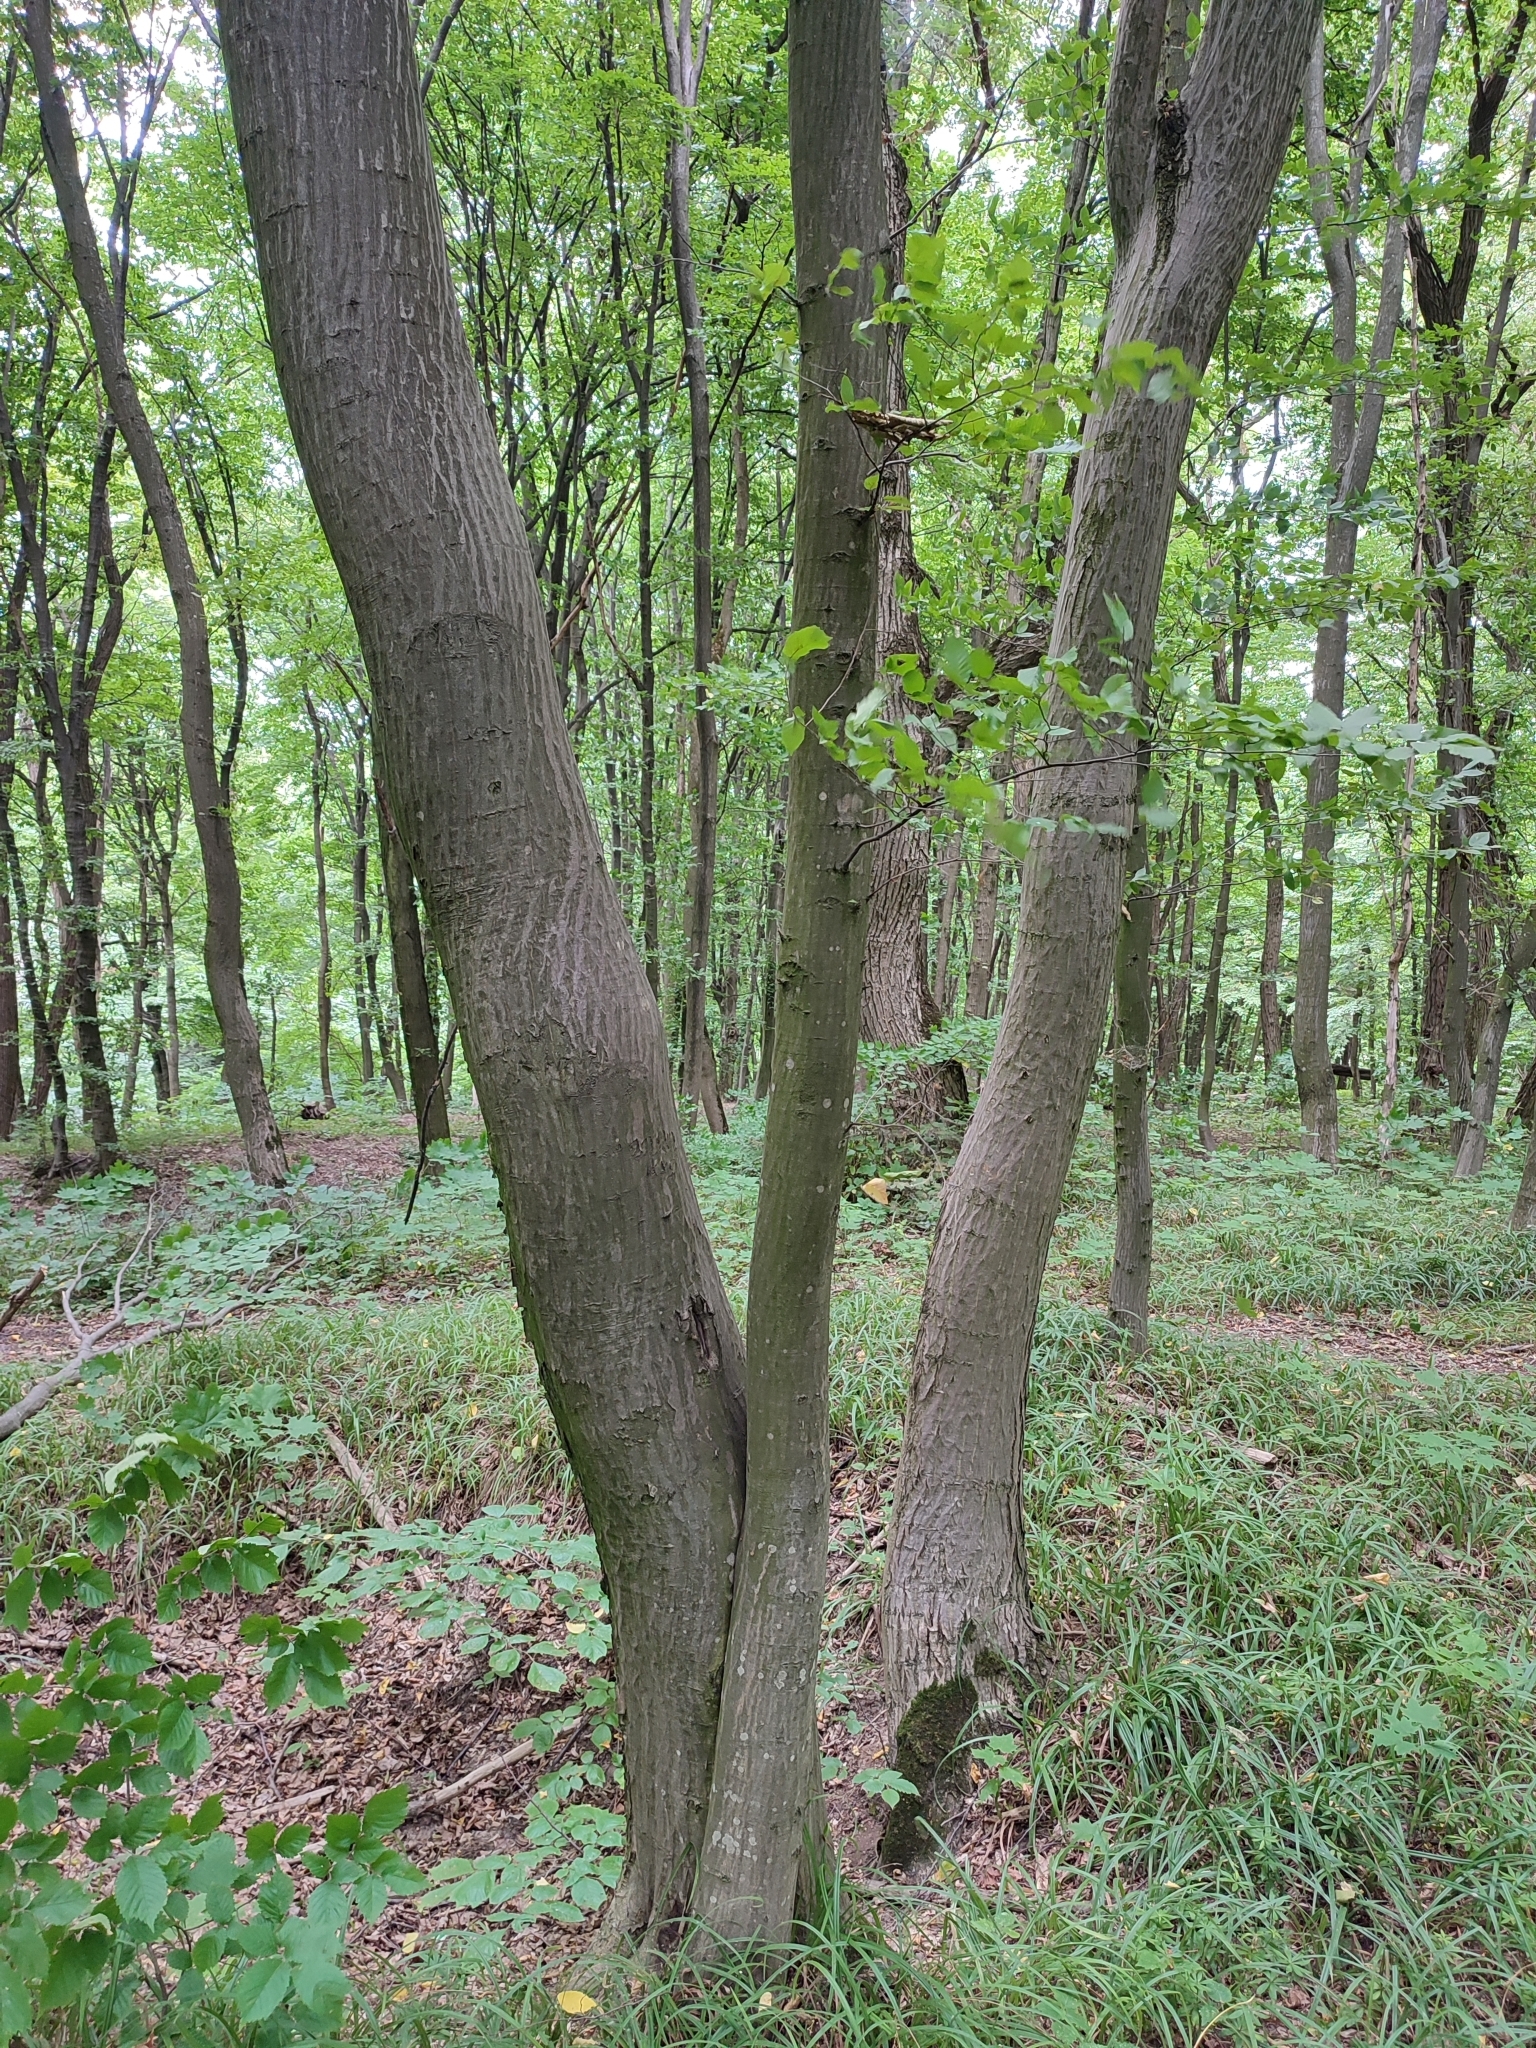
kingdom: Plantae
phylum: Tracheophyta
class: Magnoliopsida
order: Fagales
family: Betulaceae
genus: Carpinus
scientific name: Carpinus betulus
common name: Hornbeam
